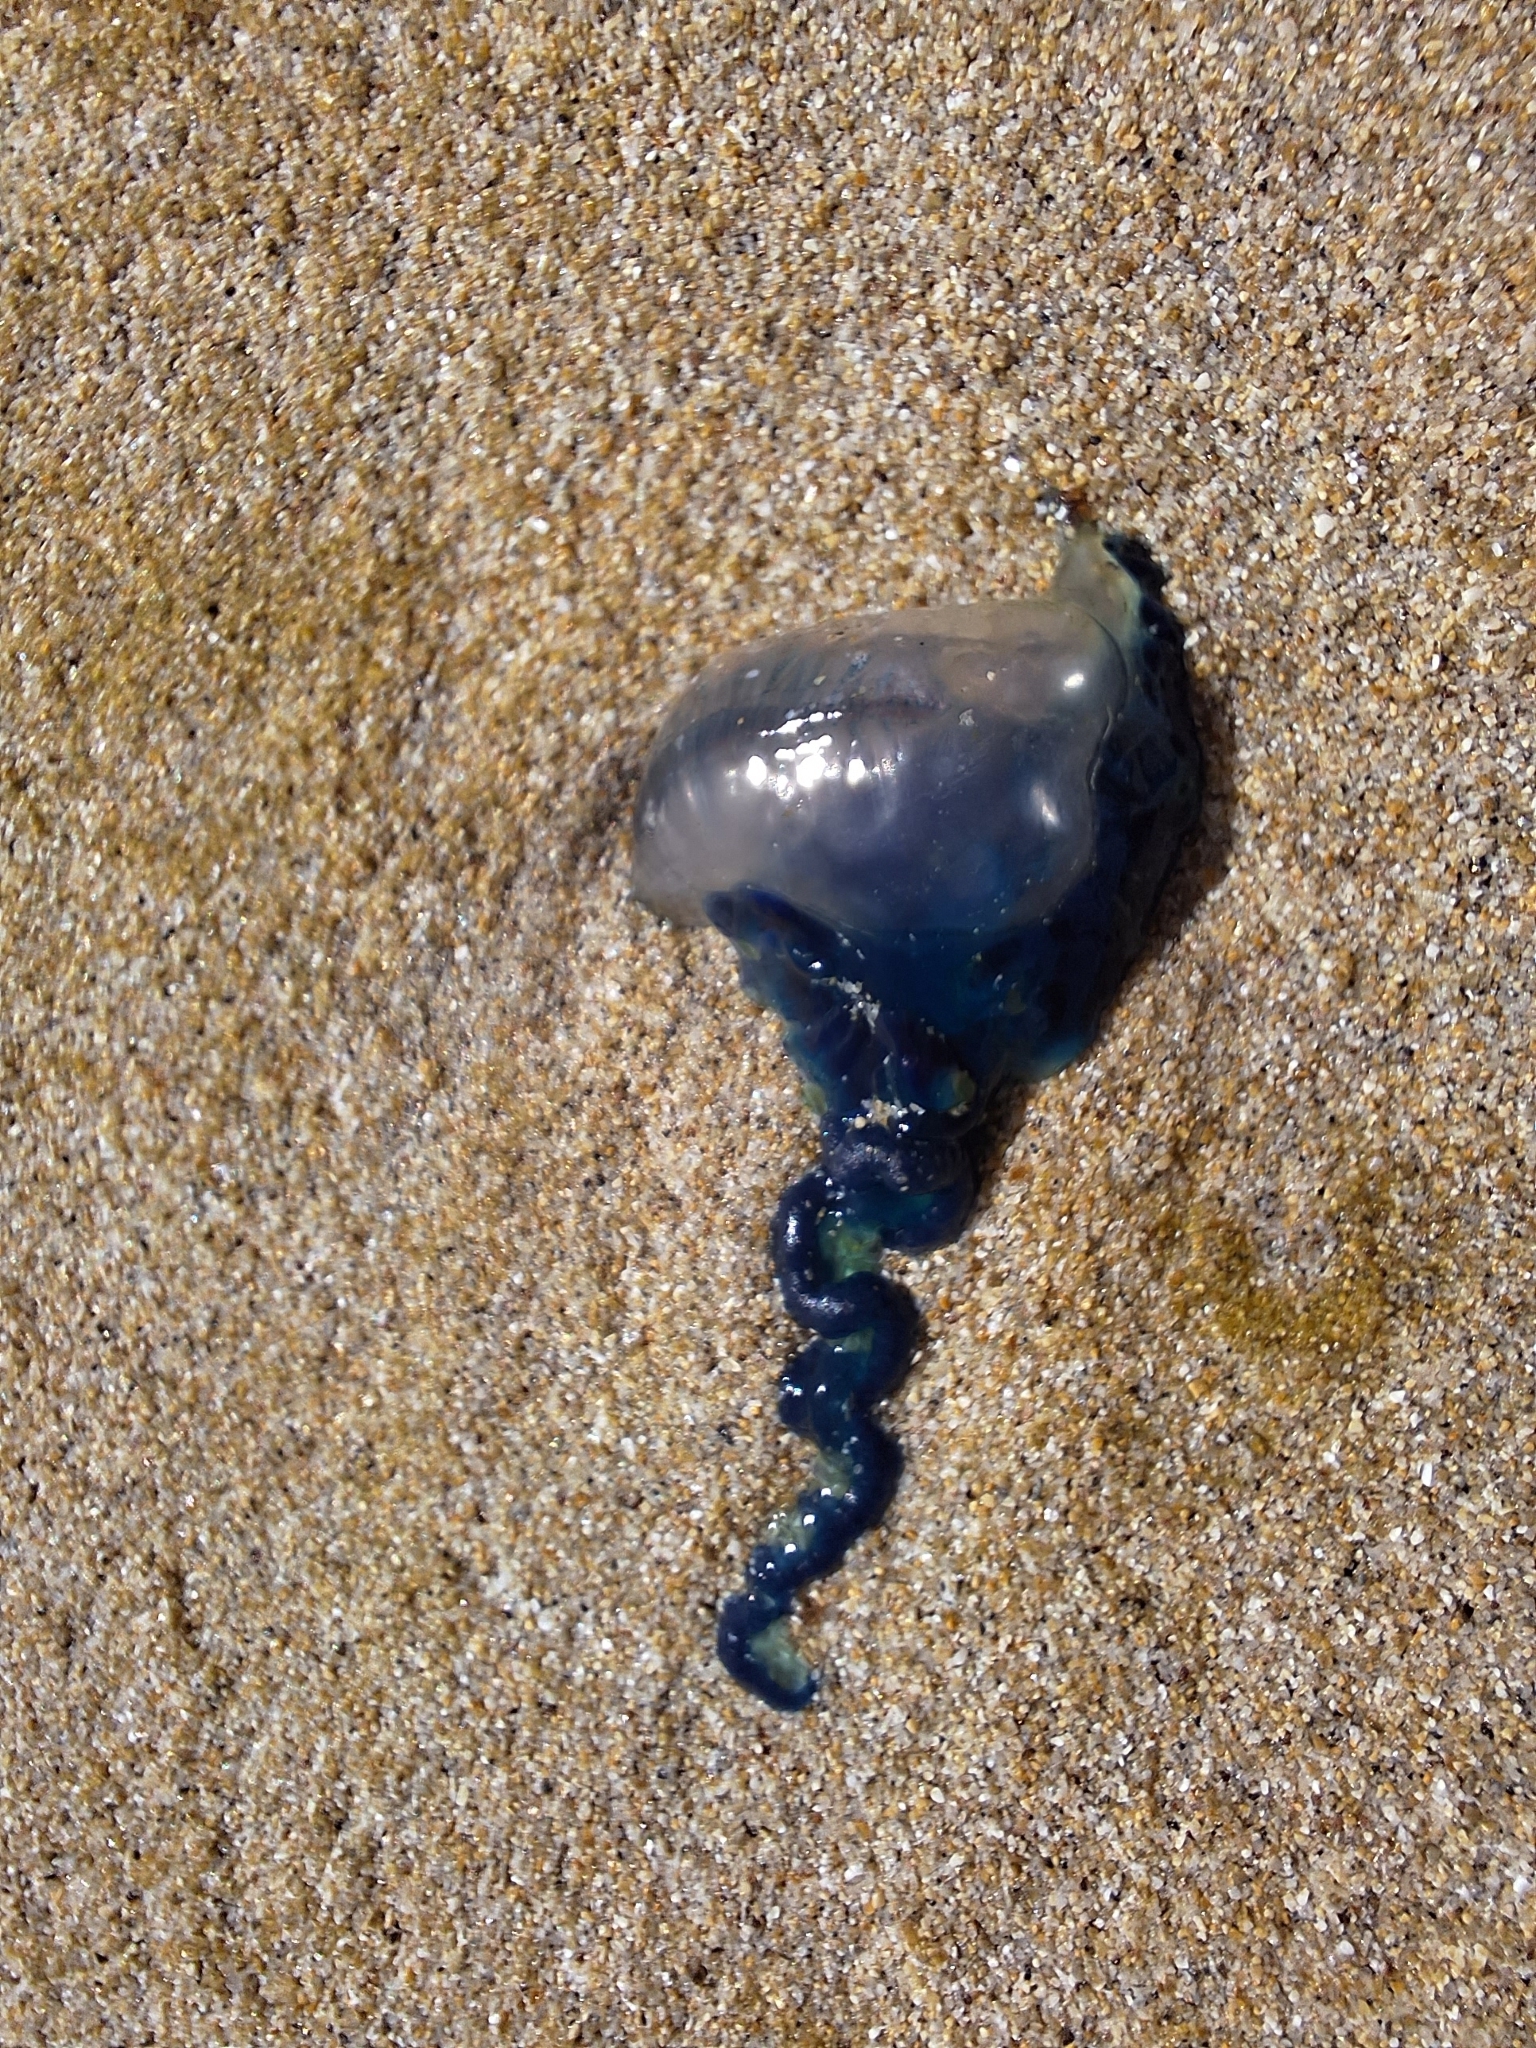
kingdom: Animalia
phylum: Cnidaria
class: Hydrozoa
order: Siphonophorae
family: Physaliidae
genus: Physalia
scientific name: Physalia physalis
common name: Portuguese man-of-war
